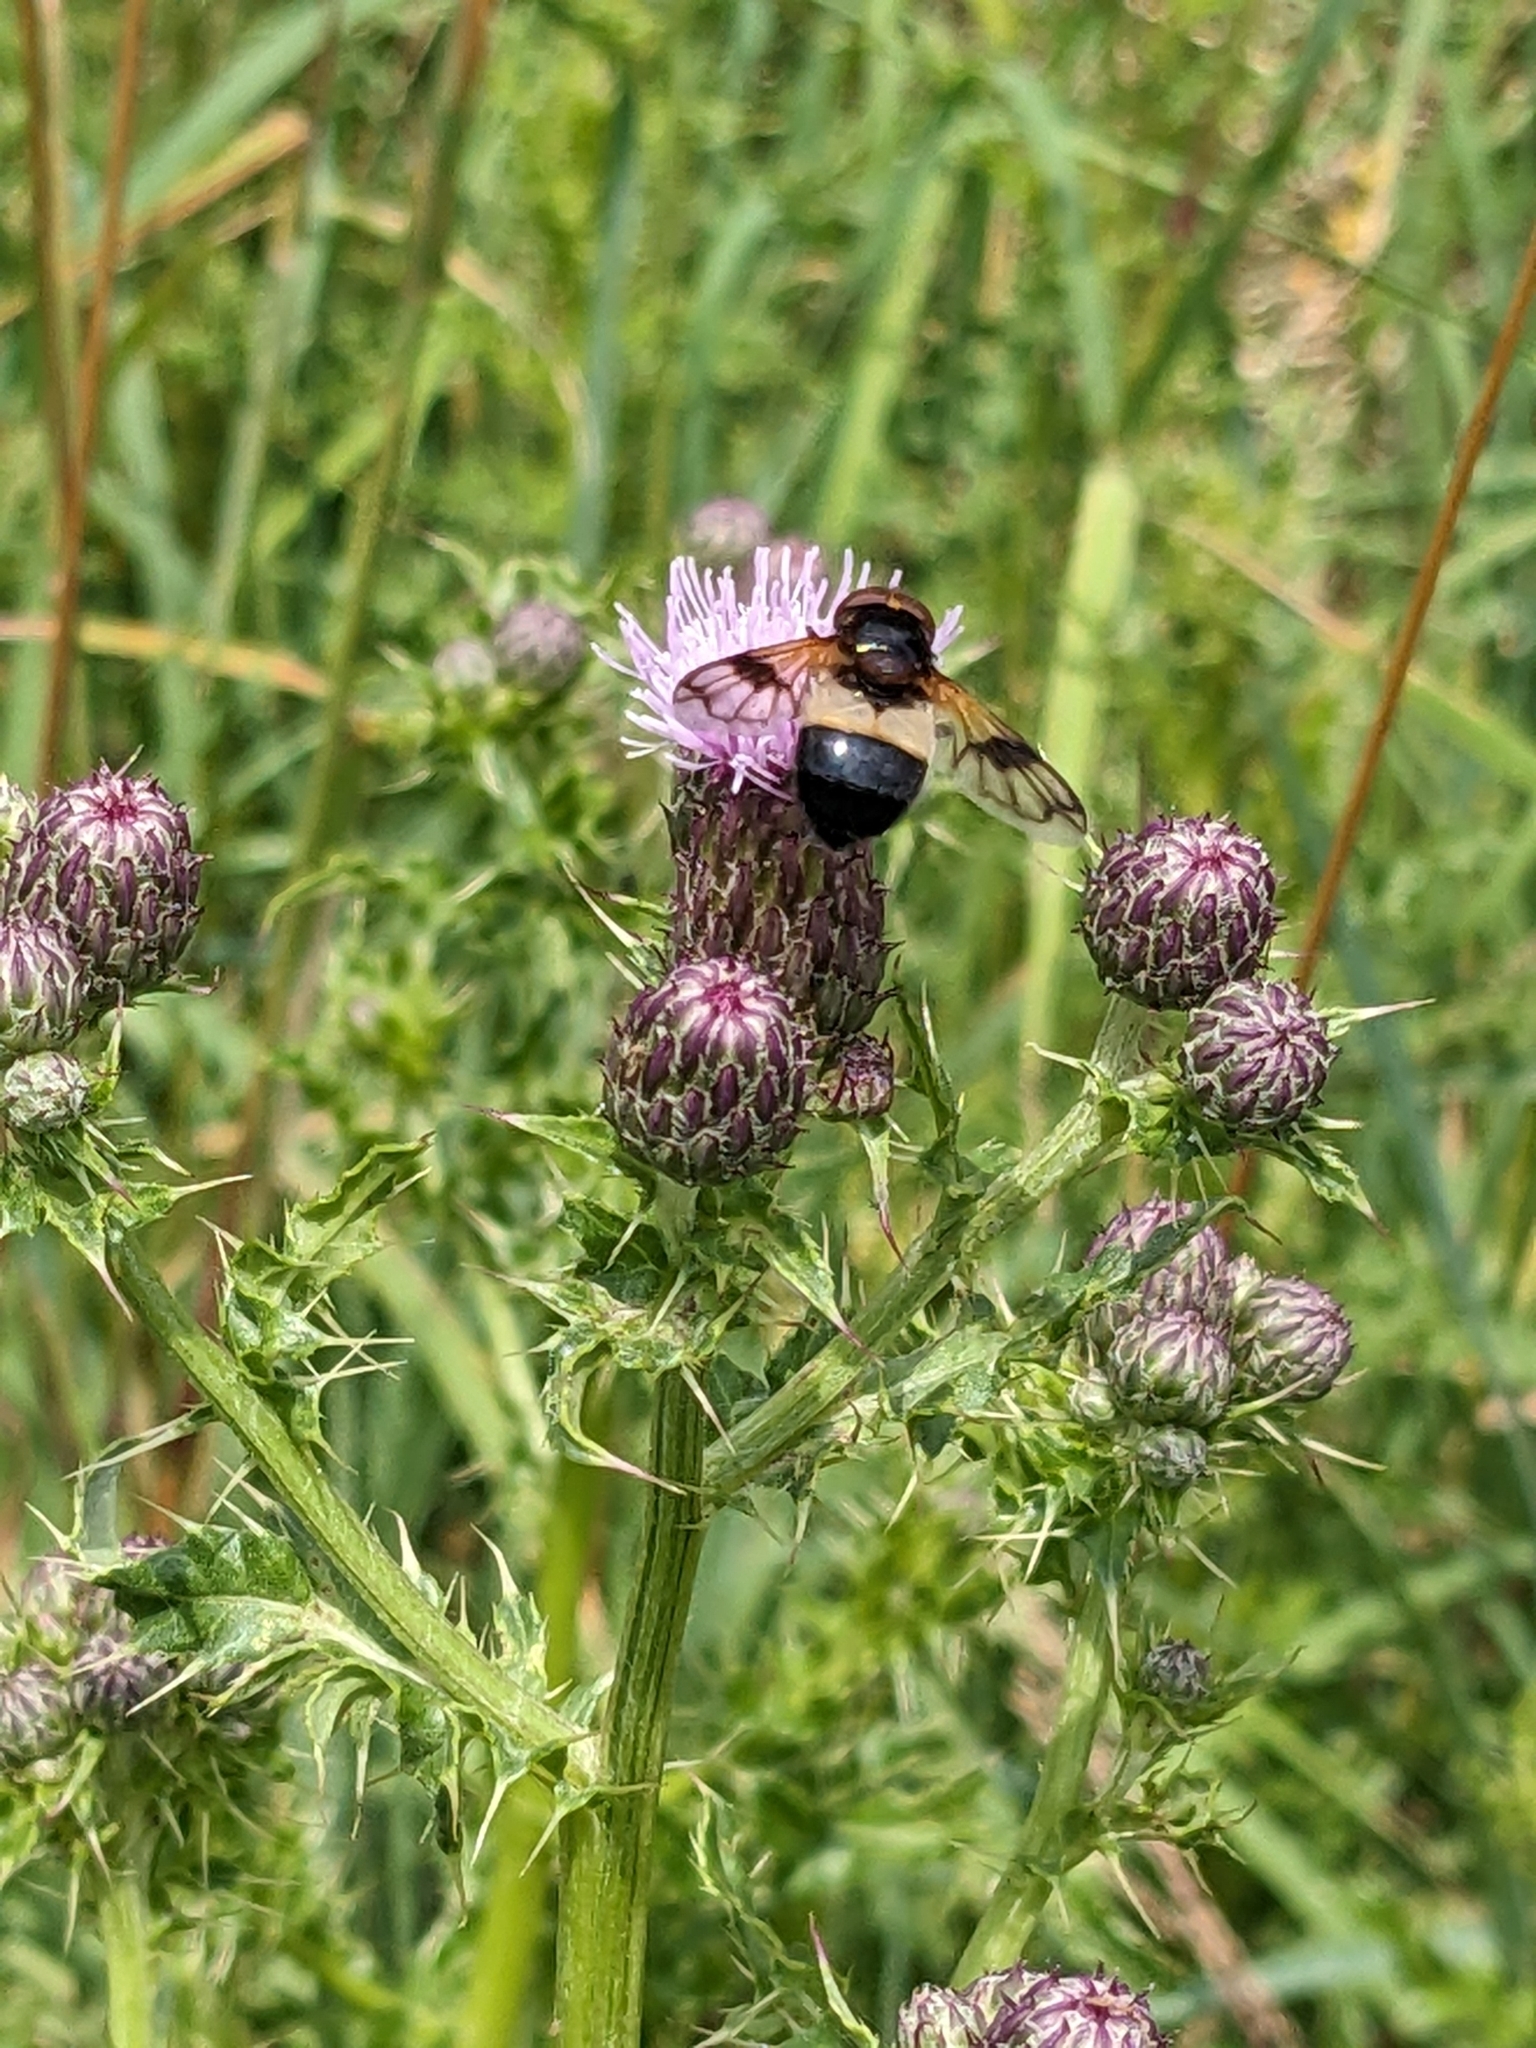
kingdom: Animalia
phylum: Arthropoda
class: Insecta
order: Diptera
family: Syrphidae
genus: Volucella
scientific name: Volucella pellucens
